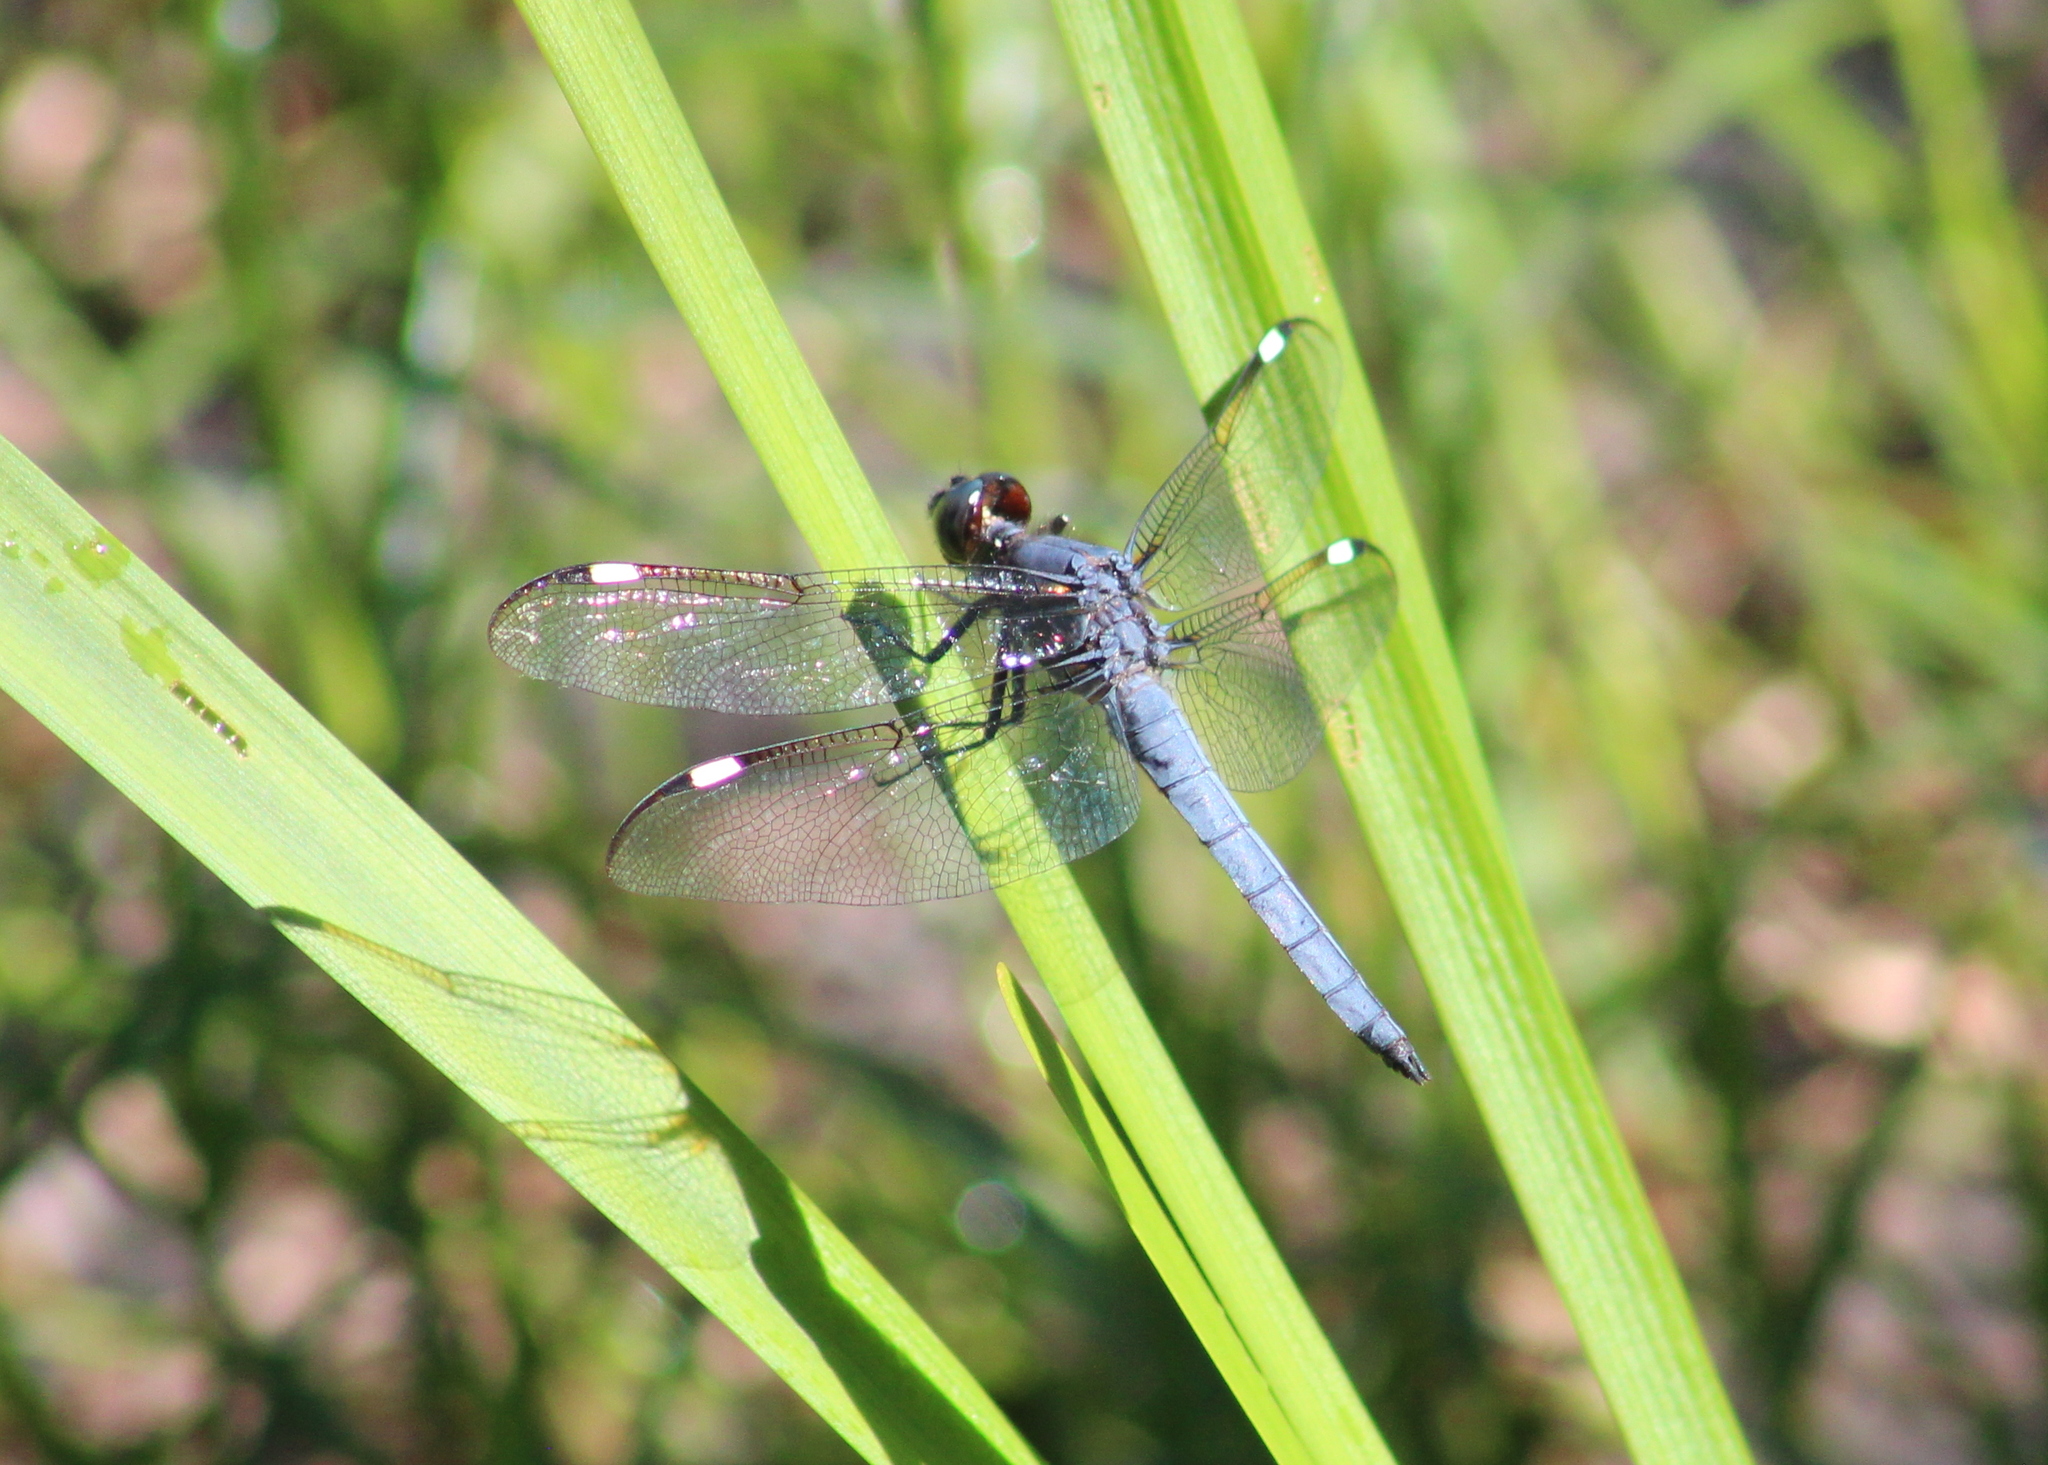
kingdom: Animalia
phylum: Arthropoda
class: Insecta
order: Odonata
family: Libellulidae
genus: Libellula
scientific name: Libellula cyanea
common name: Spangled skimmer
